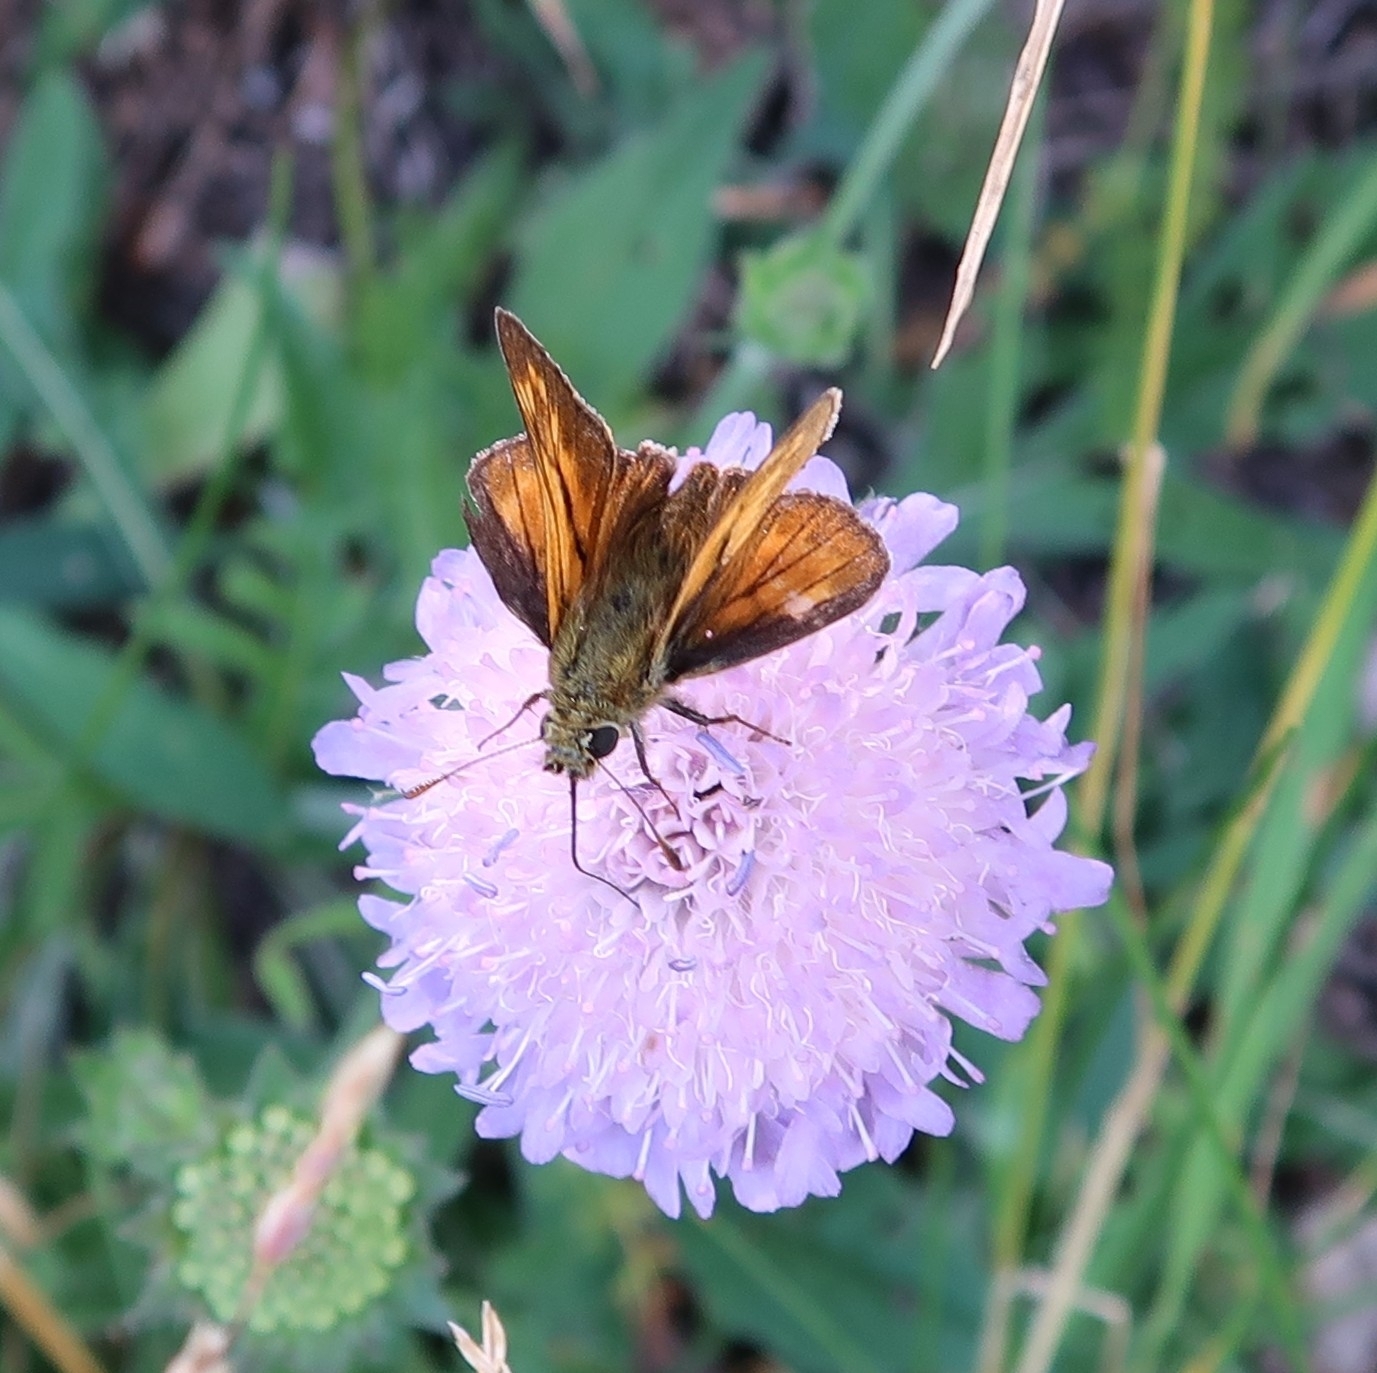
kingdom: Animalia
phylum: Arthropoda
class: Insecta
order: Lepidoptera
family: Hesperiidae
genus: Ochlodes
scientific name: Ochlodes venata
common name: Large skipper
